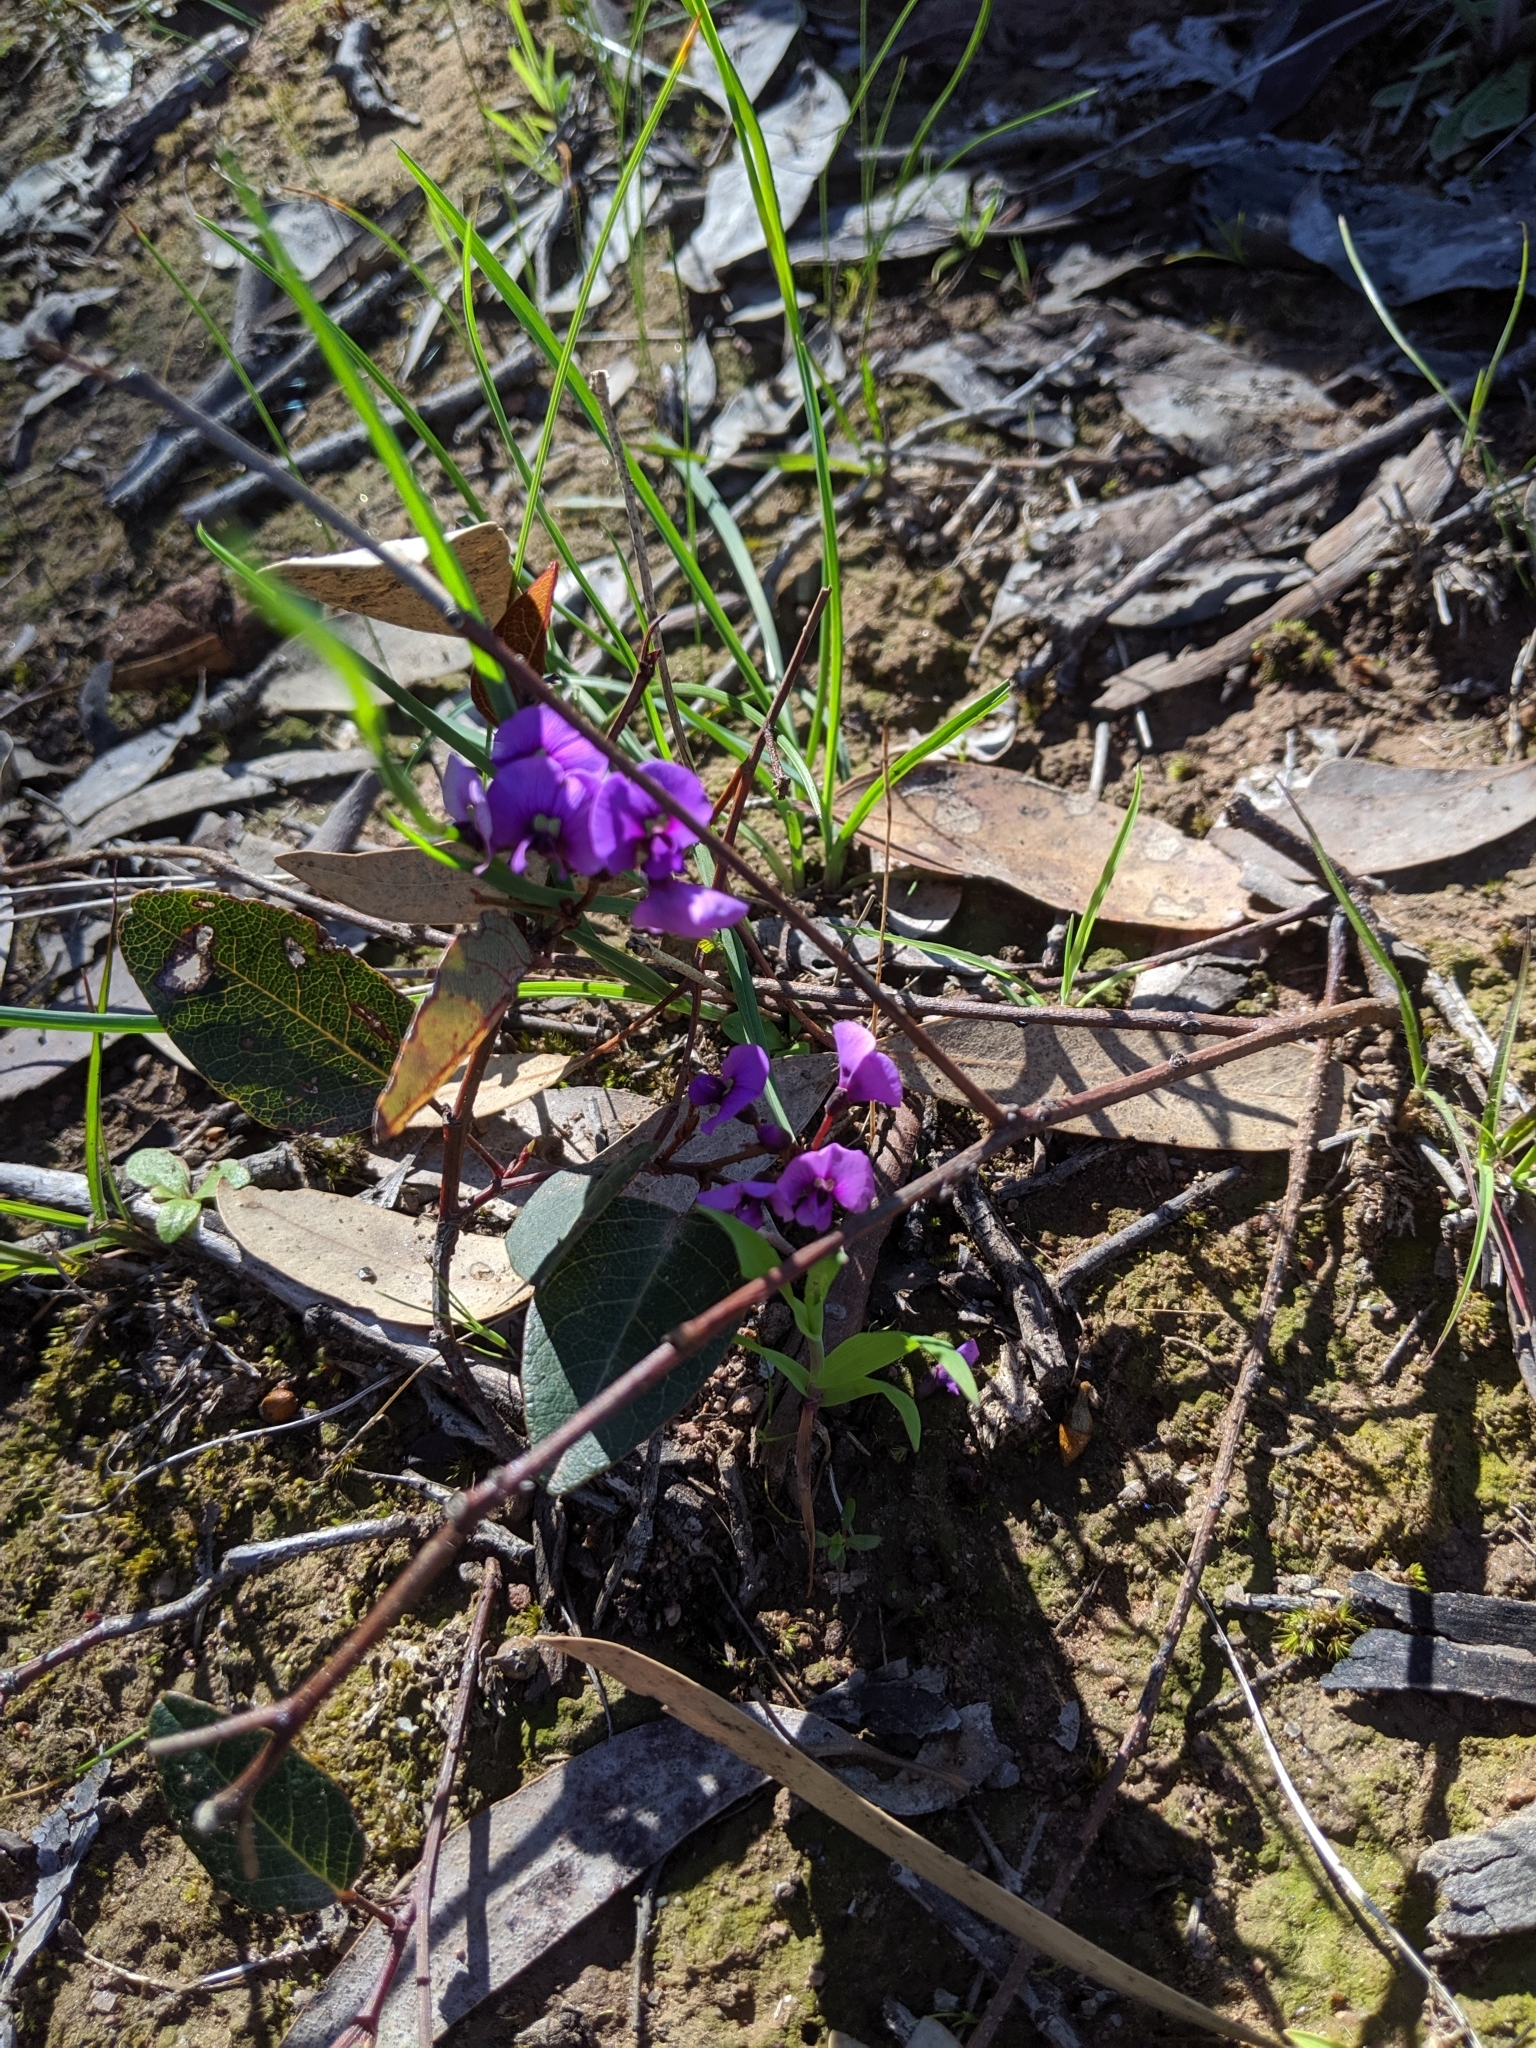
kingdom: Plantae
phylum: Tracheophyta
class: Magnoliopsida
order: Fabales
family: Fabaceae
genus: Hardenbergia
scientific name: Hardenbergia violacea
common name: Coral-pea
